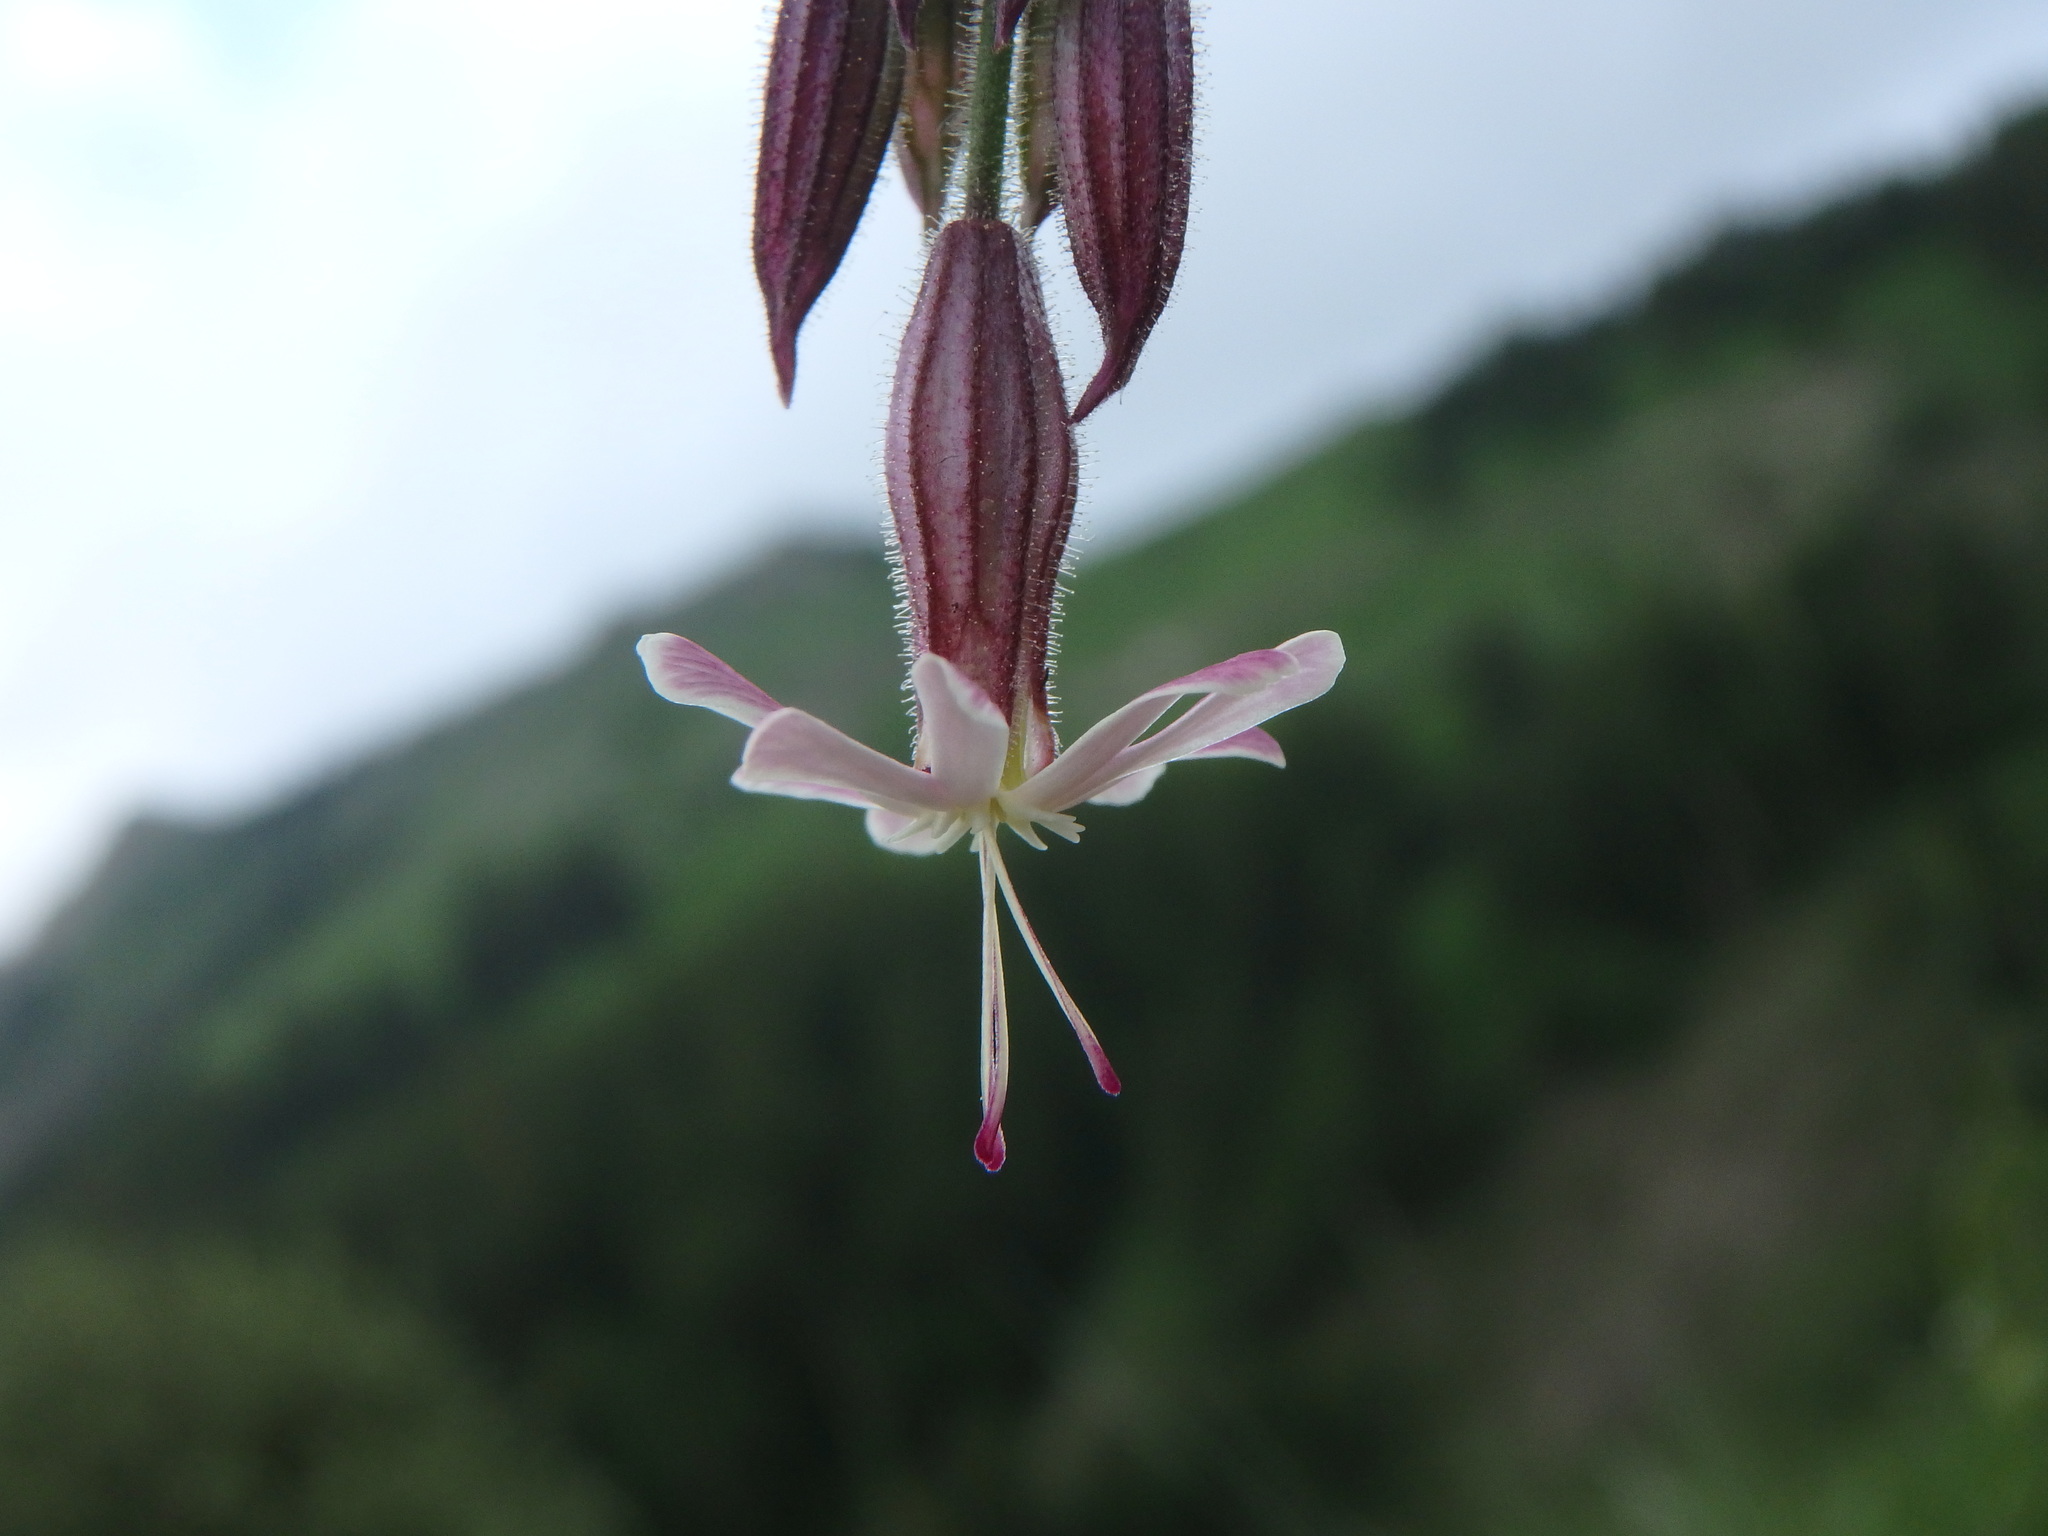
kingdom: Plantae
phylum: Tracheophyta
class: Magnoliopsida
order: Caryophyllales
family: Caryophyllaceae
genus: Silene
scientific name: Silene nutans
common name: Nottingham catchfly
